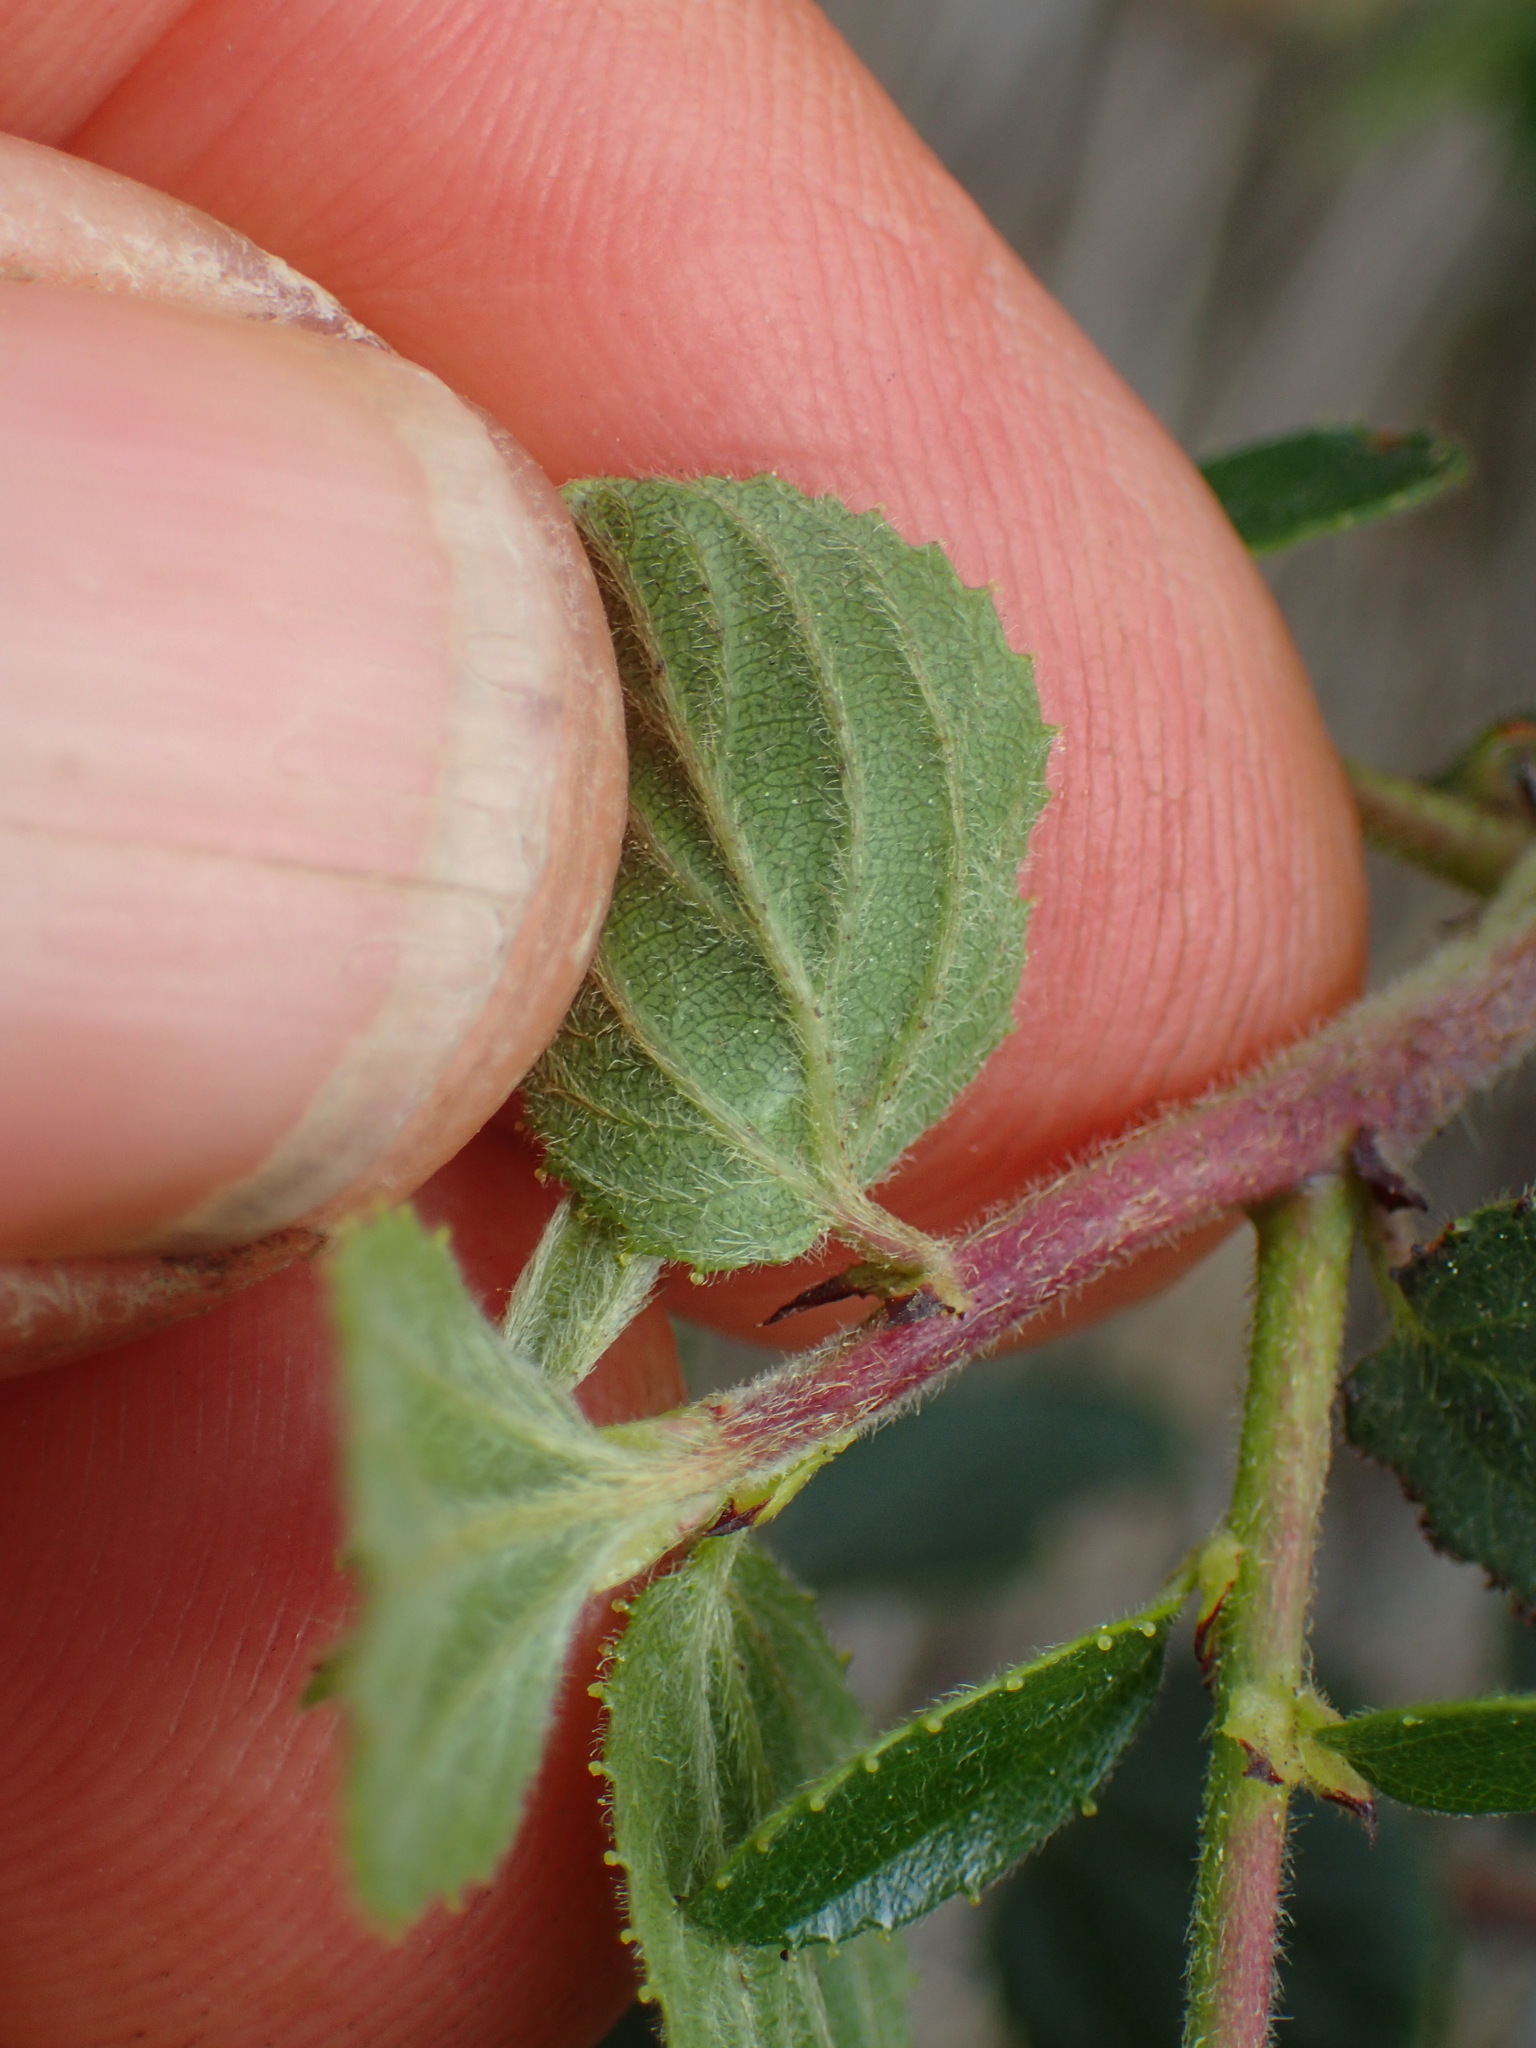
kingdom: Plantae
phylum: Tracheophyta
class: Magnoliopsida
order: Rosales
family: Rhamnaceae
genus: Ceanothus
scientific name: Ceanothus oliganthus
